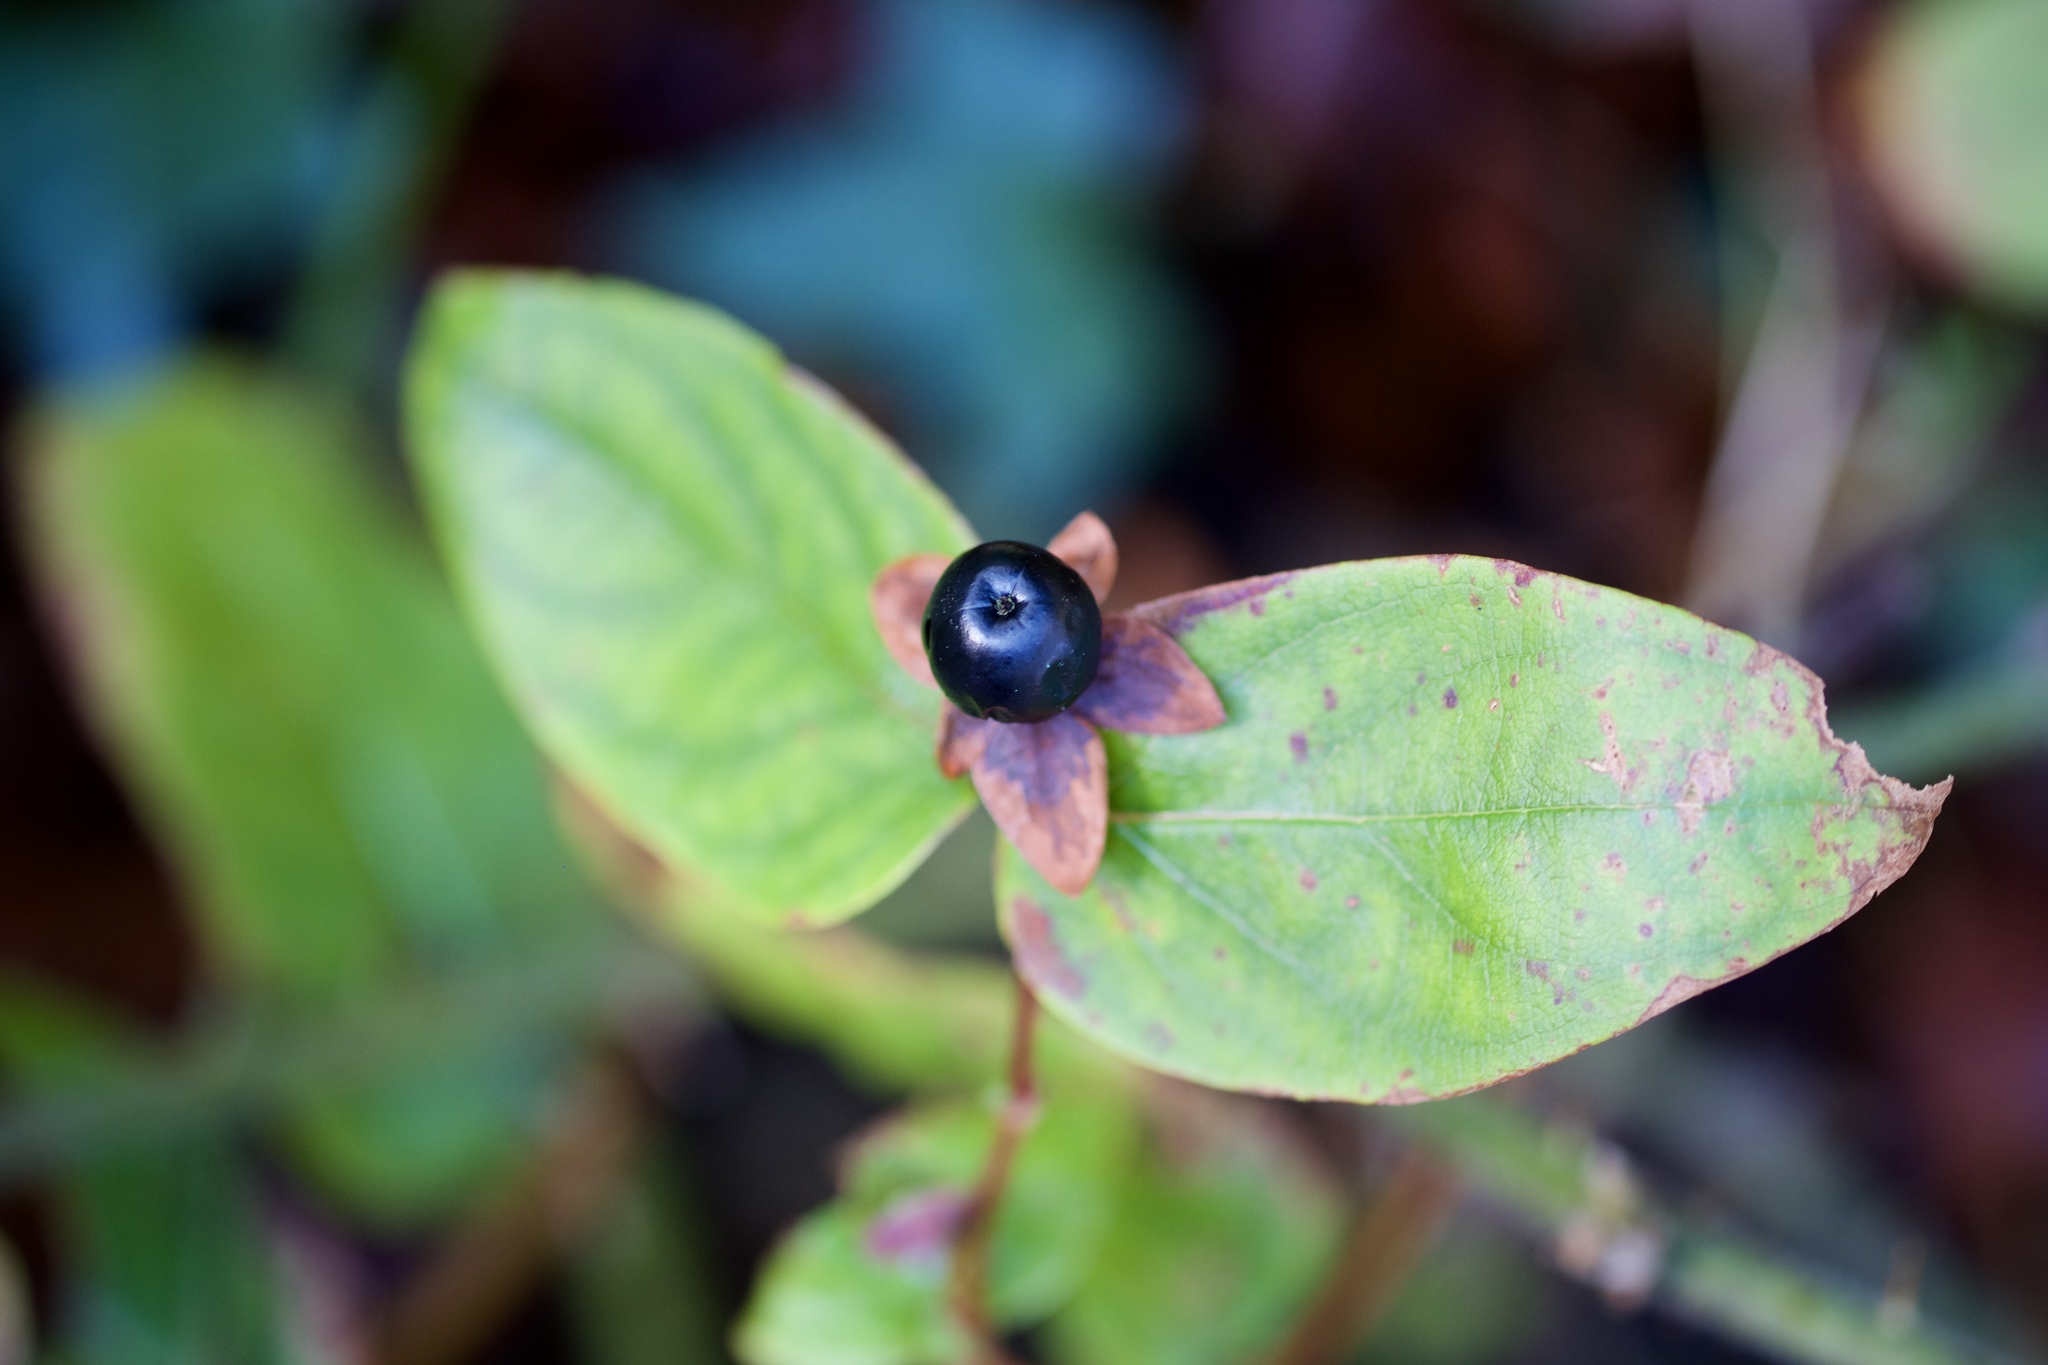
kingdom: Plantae
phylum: Tracheophyta
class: Magnoliopsida
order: Malpighiales
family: Hypericaceae
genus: Hypericum
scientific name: Hypericum androsaemum
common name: Sweet-amber
